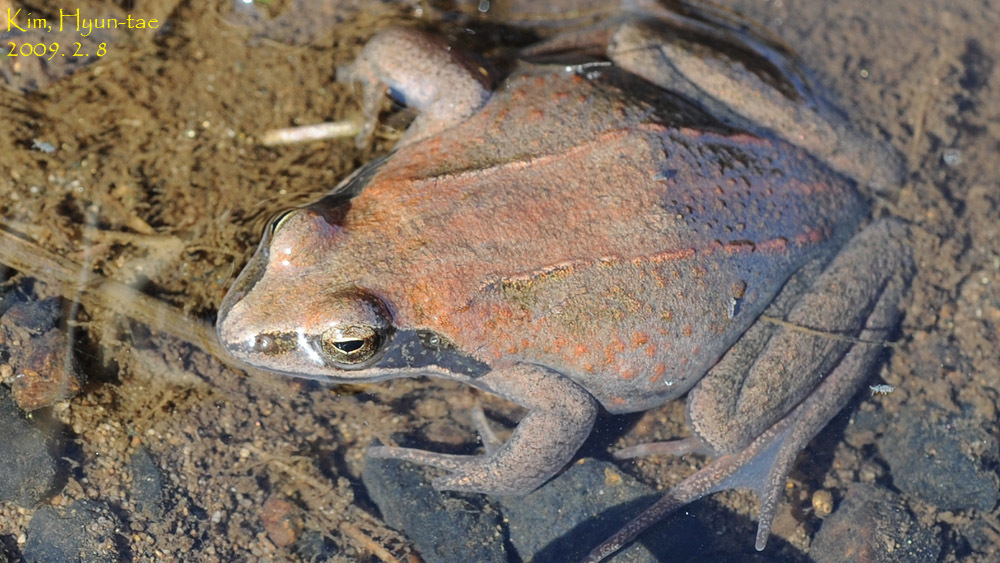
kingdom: Animalia
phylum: Chordata
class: Amphibia
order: Anura
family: Ranidae
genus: Rana
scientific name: Rana coreana
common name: Korean brown frog
